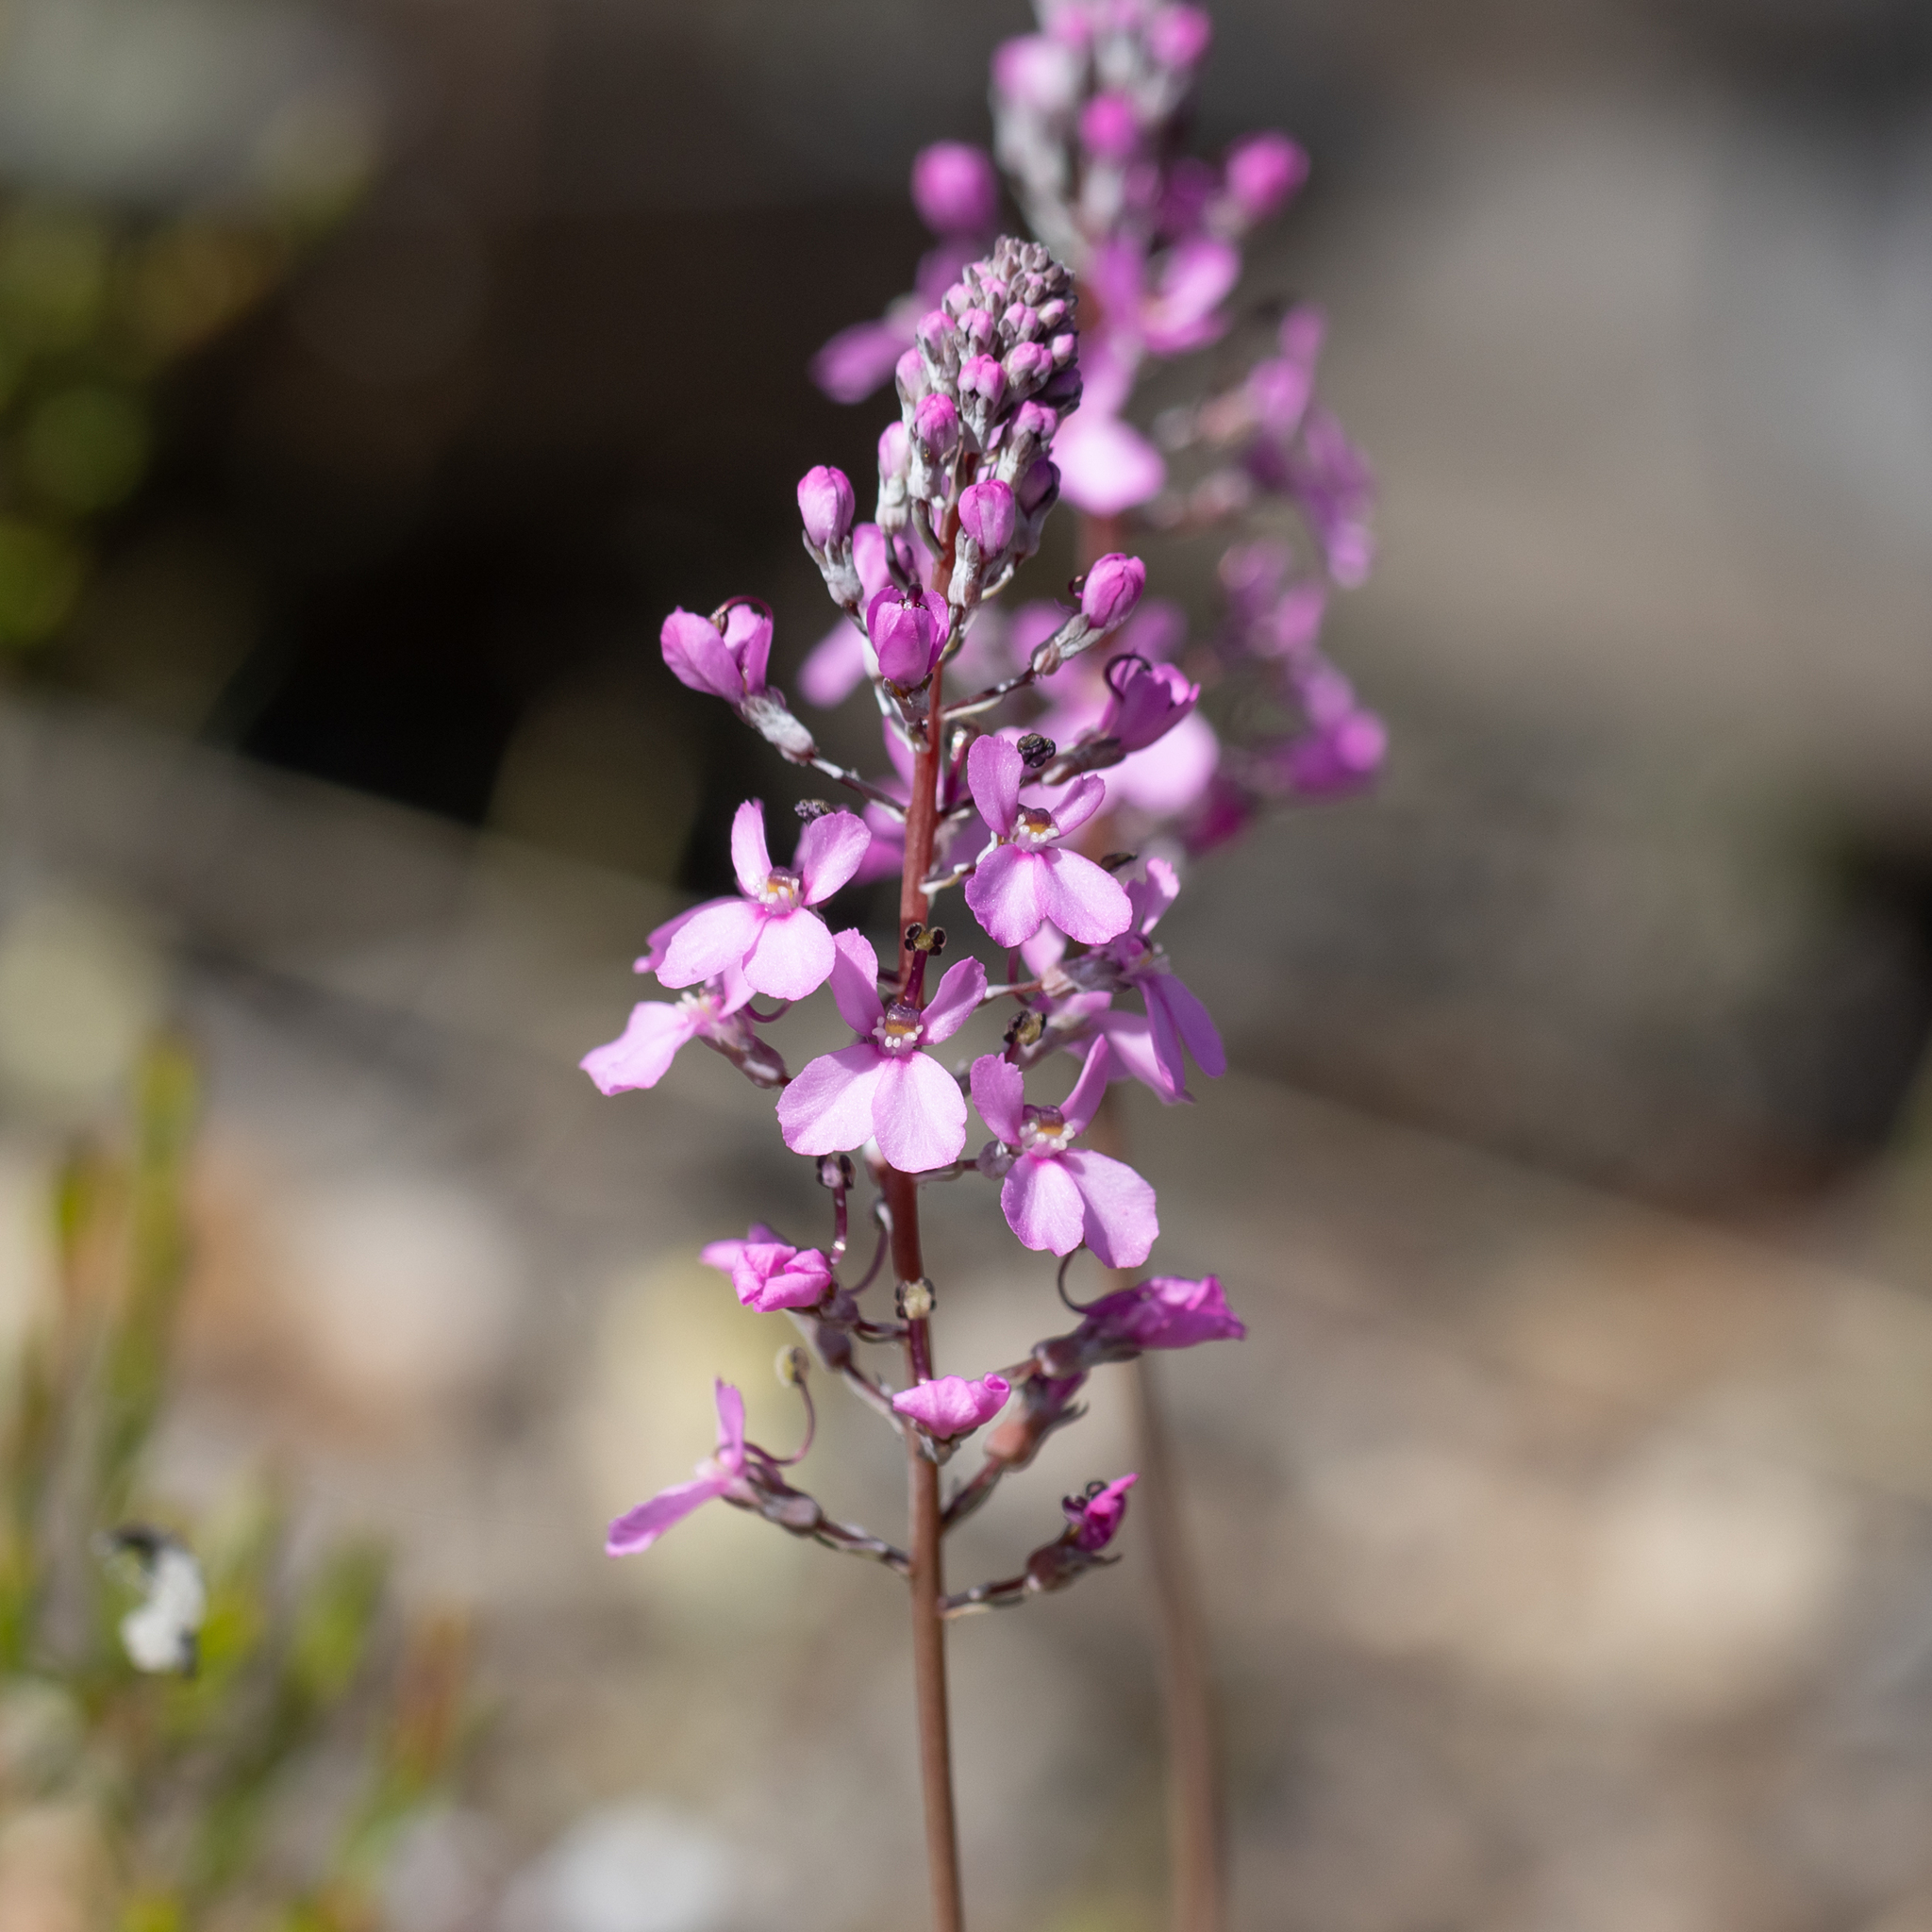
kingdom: Plantae
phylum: Tracheophyta
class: Magnoliopsida
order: Asterales
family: Stylidiaceae
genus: Stylidium
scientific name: Stylidium tenue
